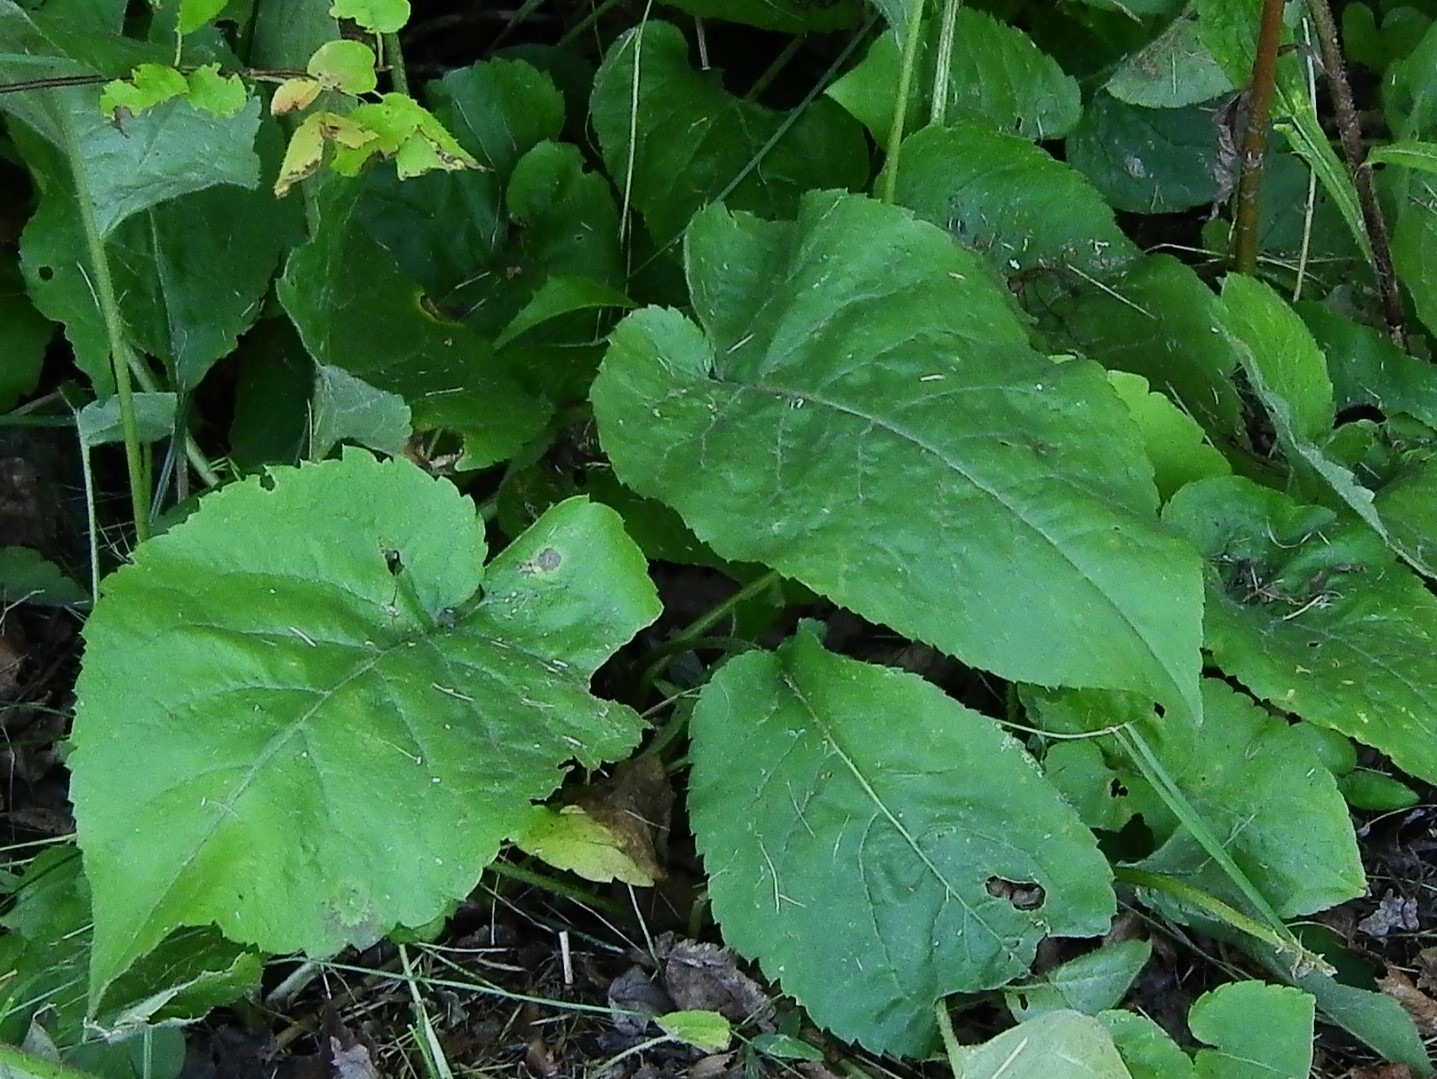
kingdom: Plantae
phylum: Tracheophyta
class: Magnoliopsida
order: Asterales
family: Asteraceae
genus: Eurybia
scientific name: Eurybia macrophylla
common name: Big-leaved aster
